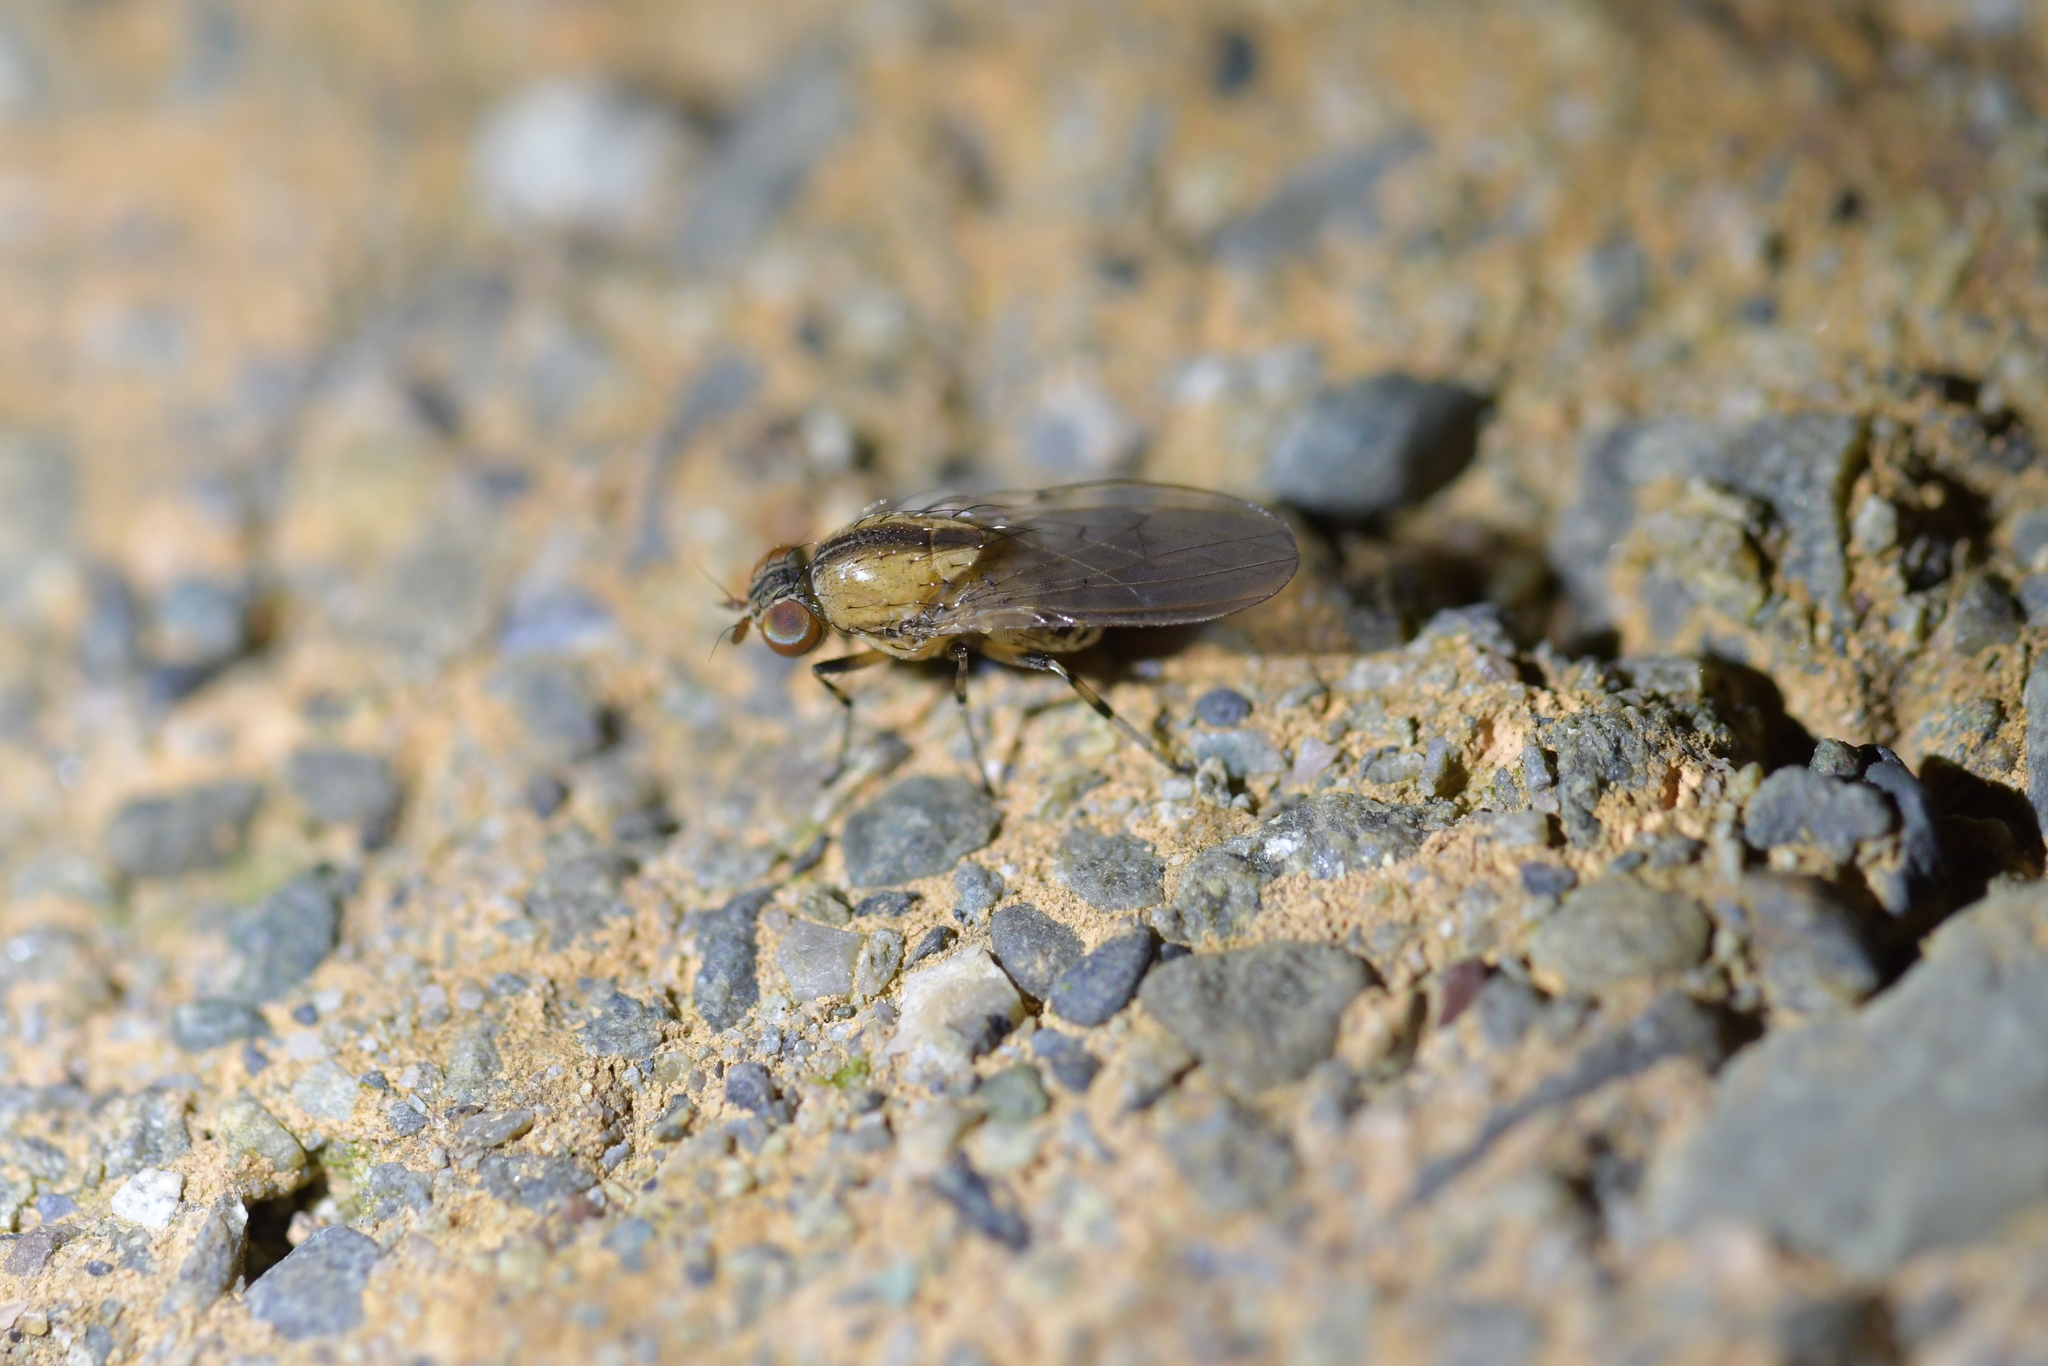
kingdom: Animalia
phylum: Arthropoda
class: Insecta
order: Diptera
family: Lauxaniidae
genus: Sapromyza
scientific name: Sapromyza neozelandica
